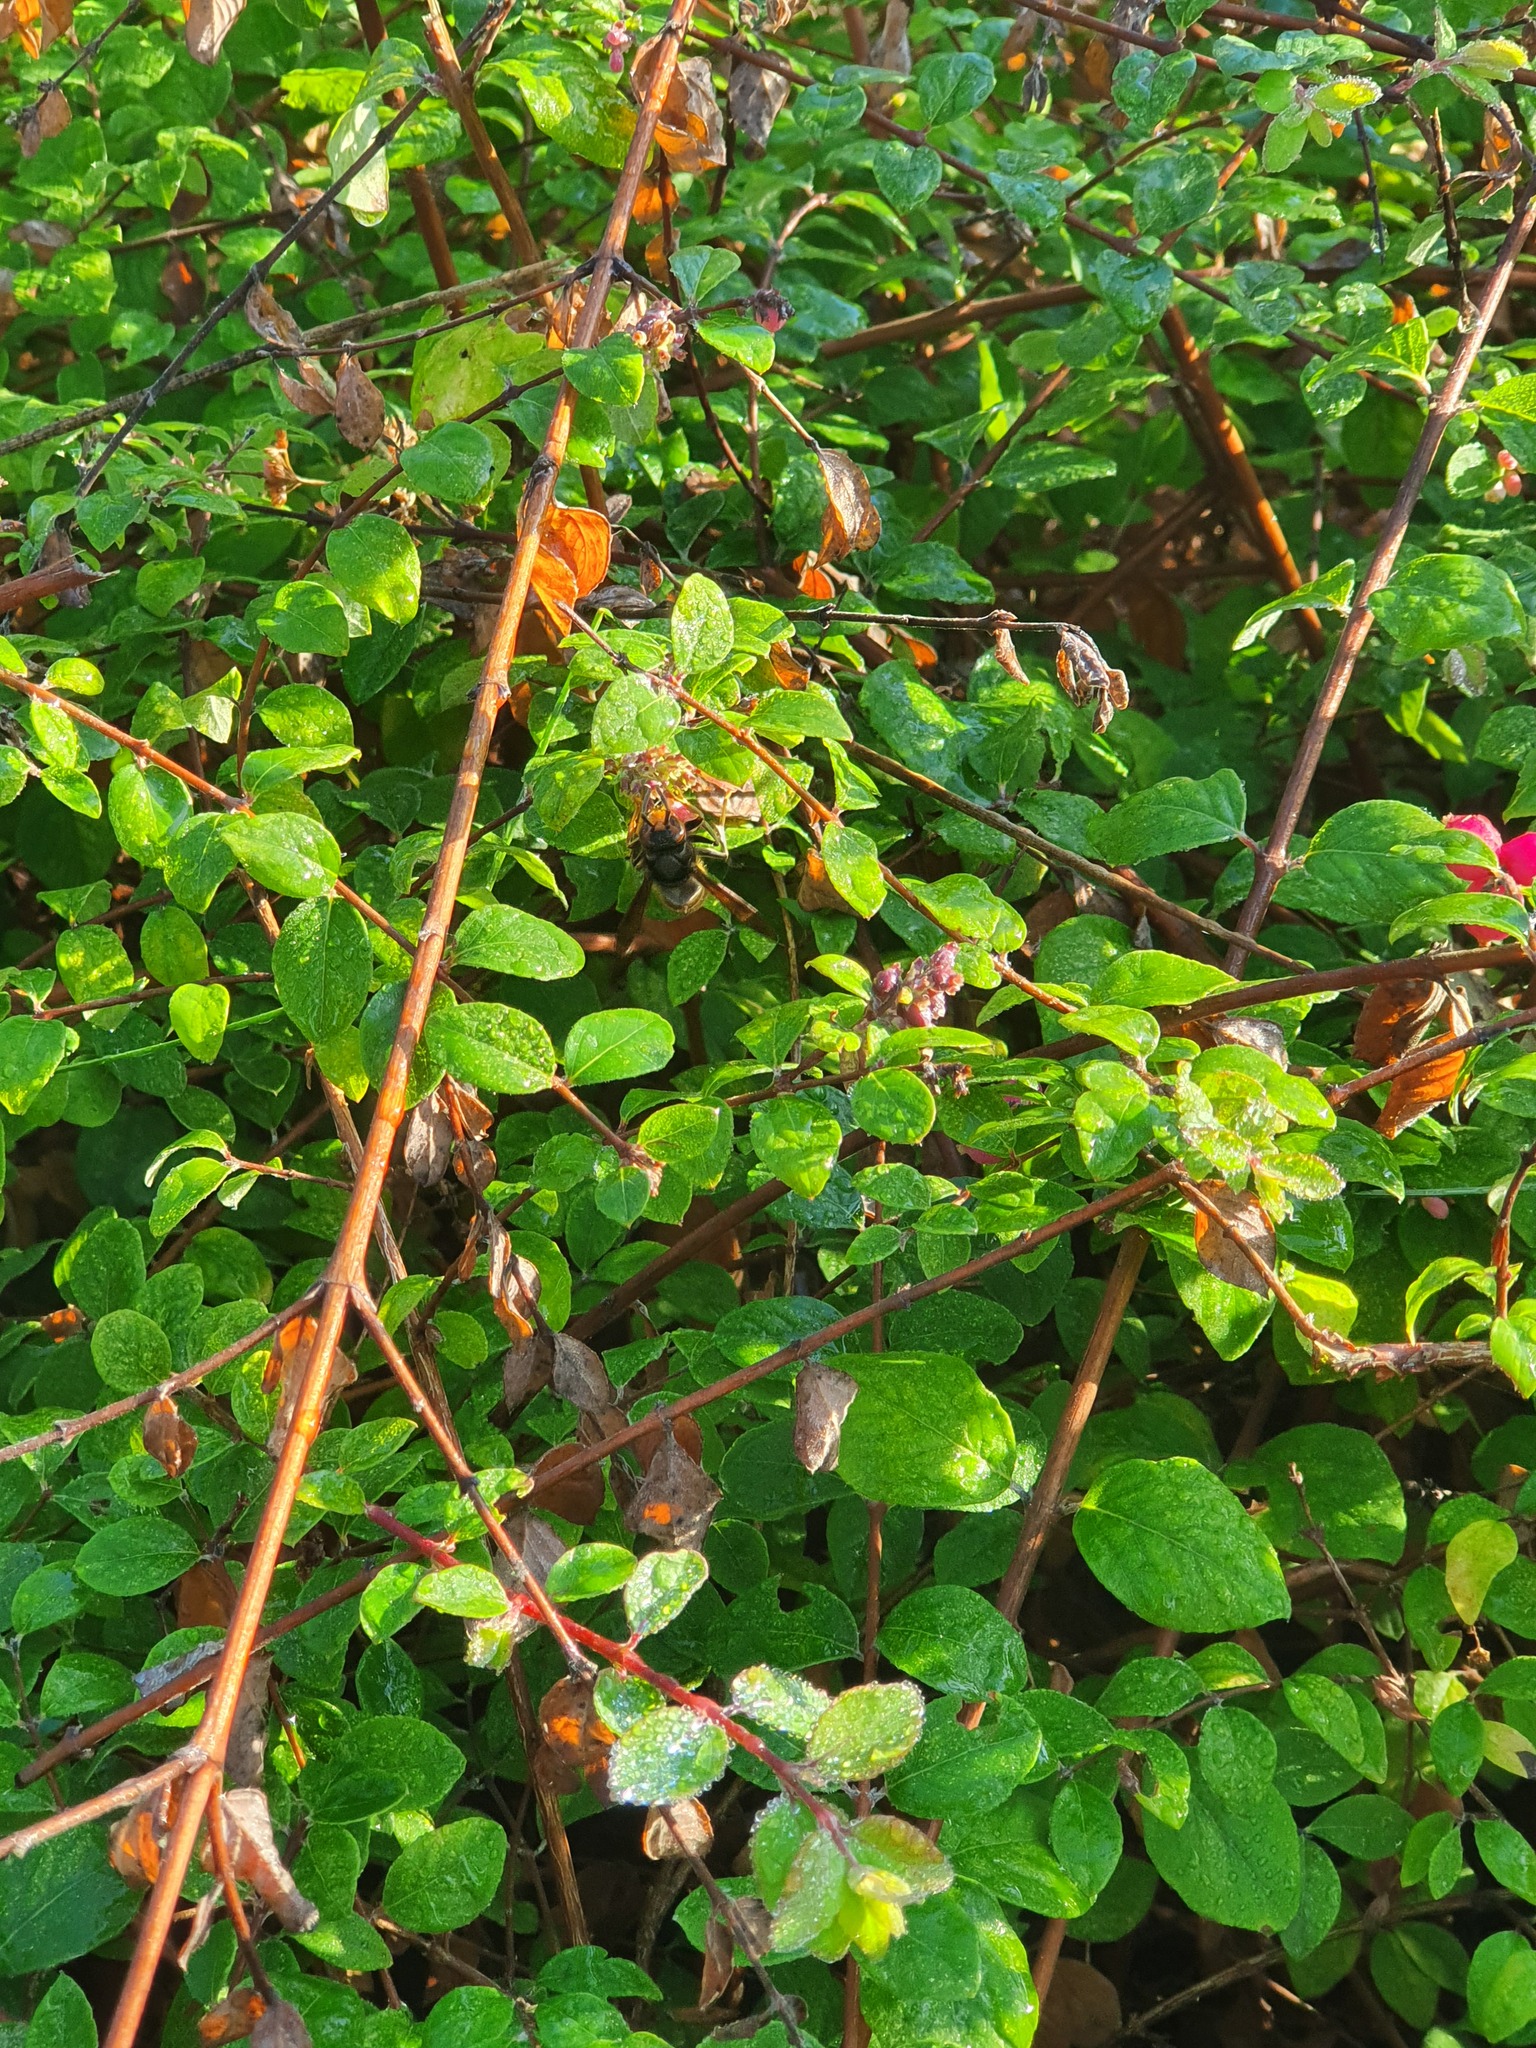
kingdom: Animalia
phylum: Arthropoda
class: Insecta
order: Hymenoptera
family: Vespidae
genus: Vespa
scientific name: Vespa velutina
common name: Asian hornet
